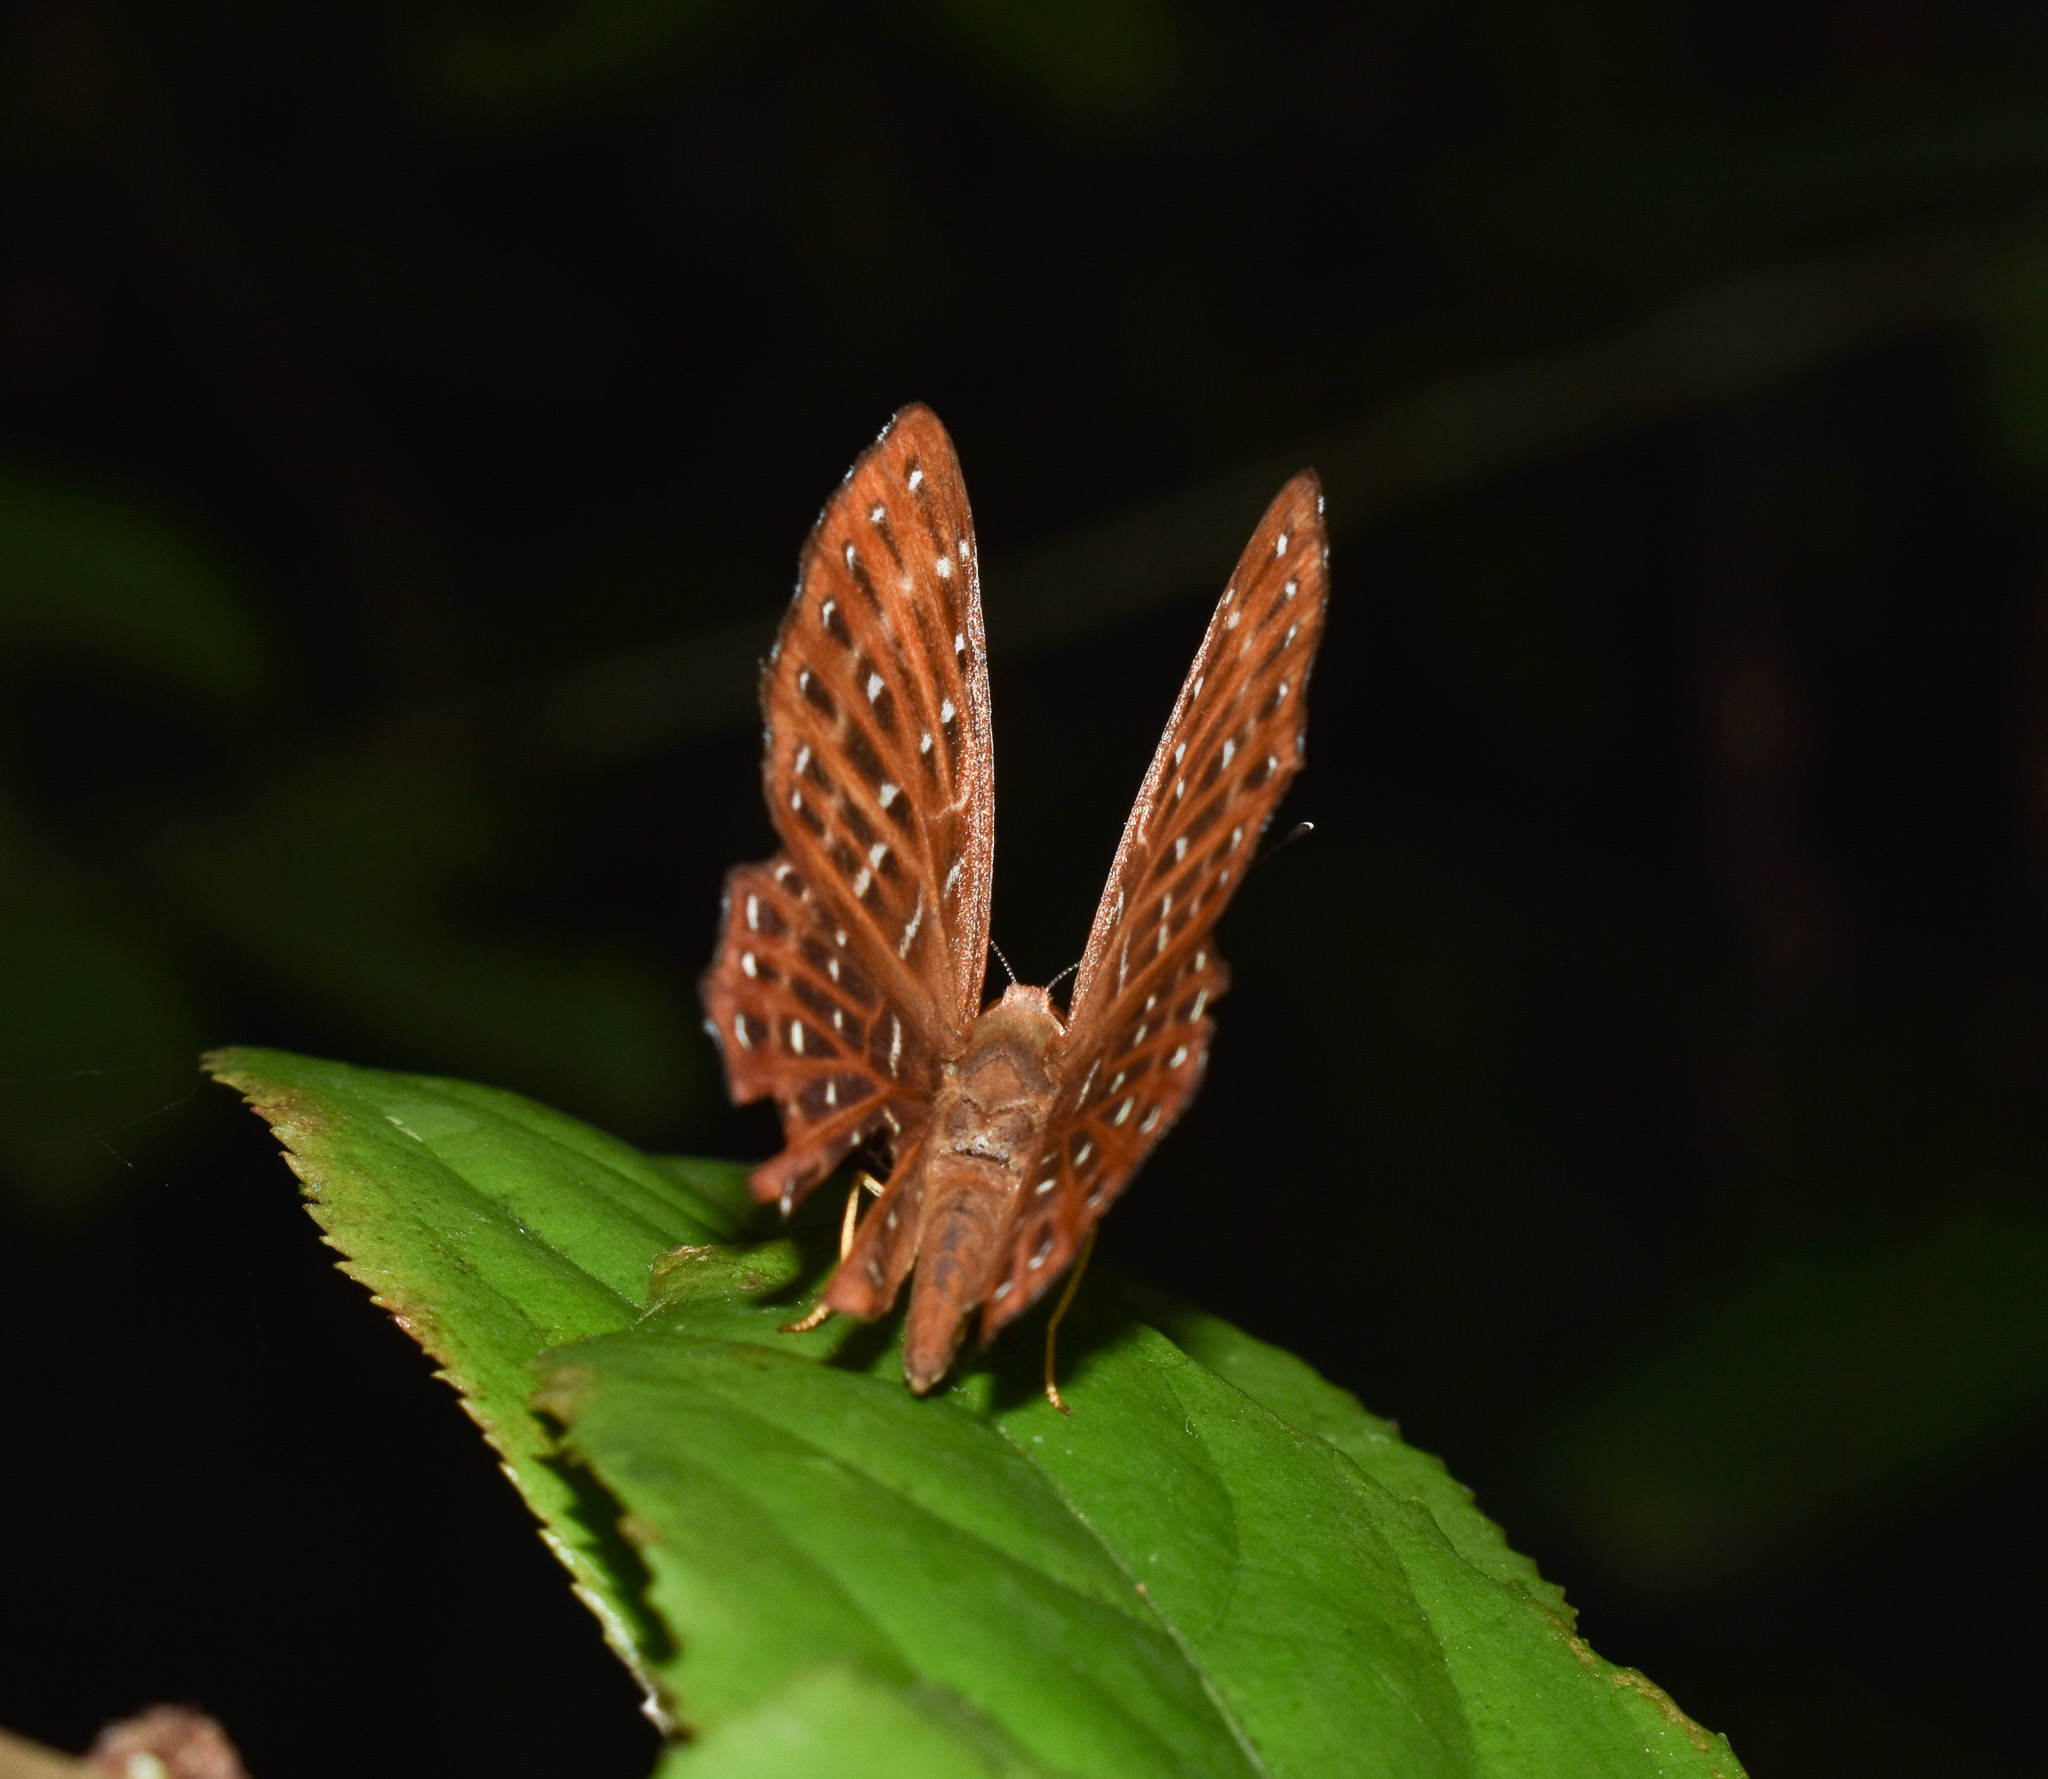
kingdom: Animalia
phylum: Arthropoda
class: Insecta
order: Lepidoptera
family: Riodinidae
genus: Zemeros
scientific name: Zemeros flegyas
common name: Punchinello
